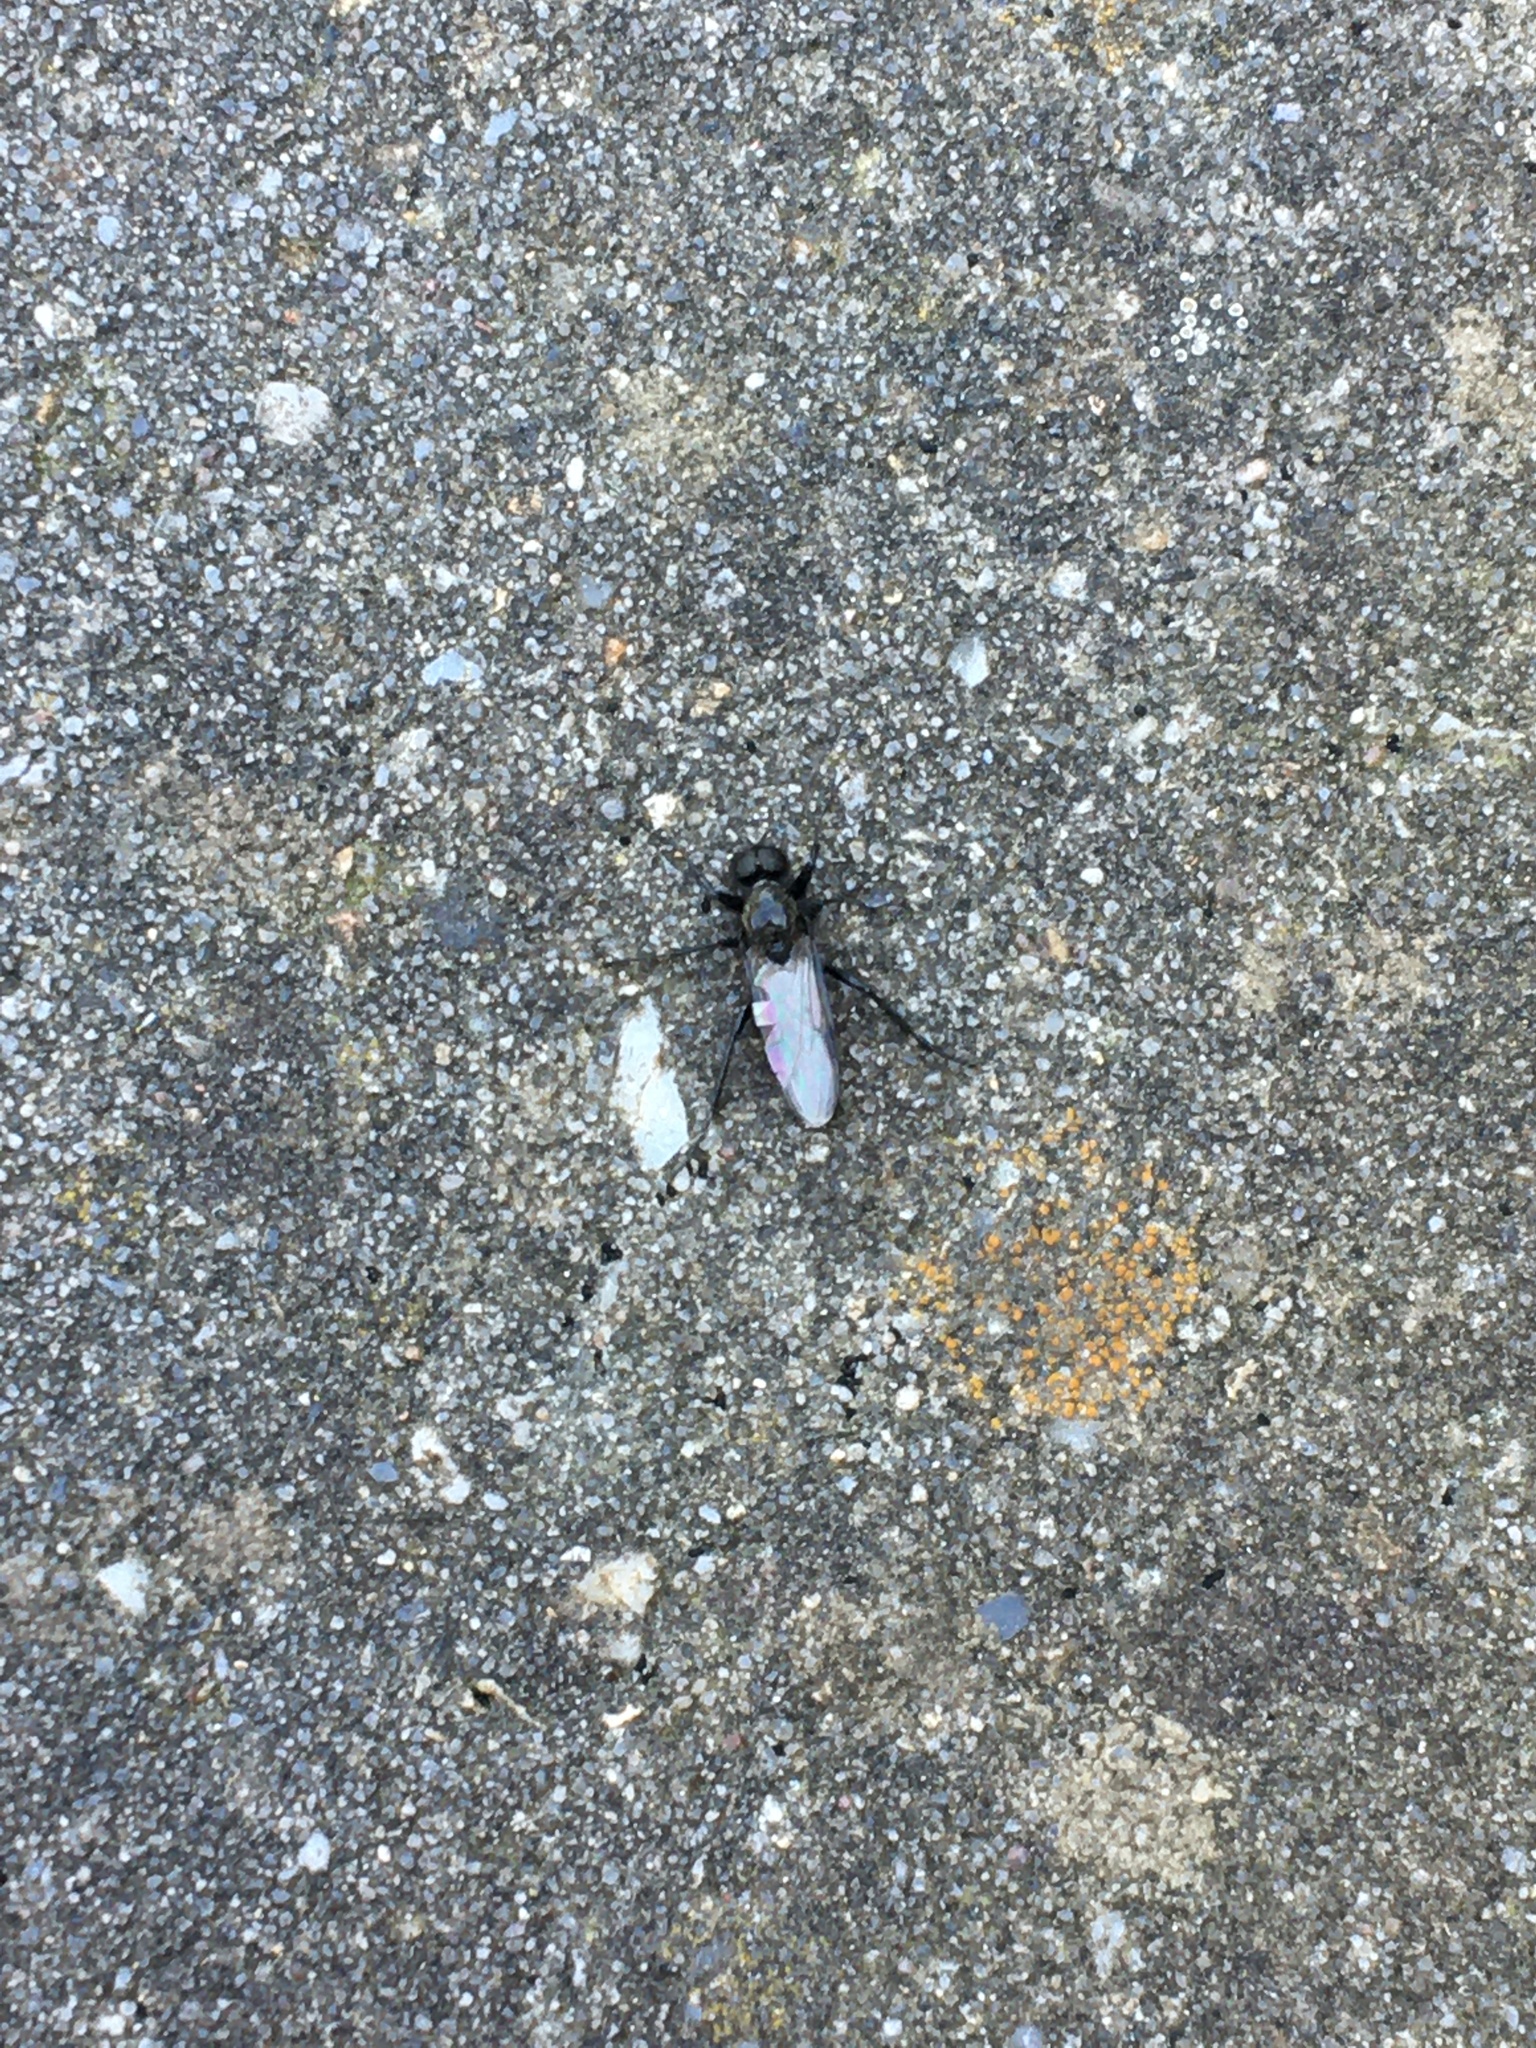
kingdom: Animalia
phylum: Arthropoda
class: Insecta
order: Diptera
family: Bibionidae
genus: Bibio
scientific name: Bibio marci
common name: St marks fly
